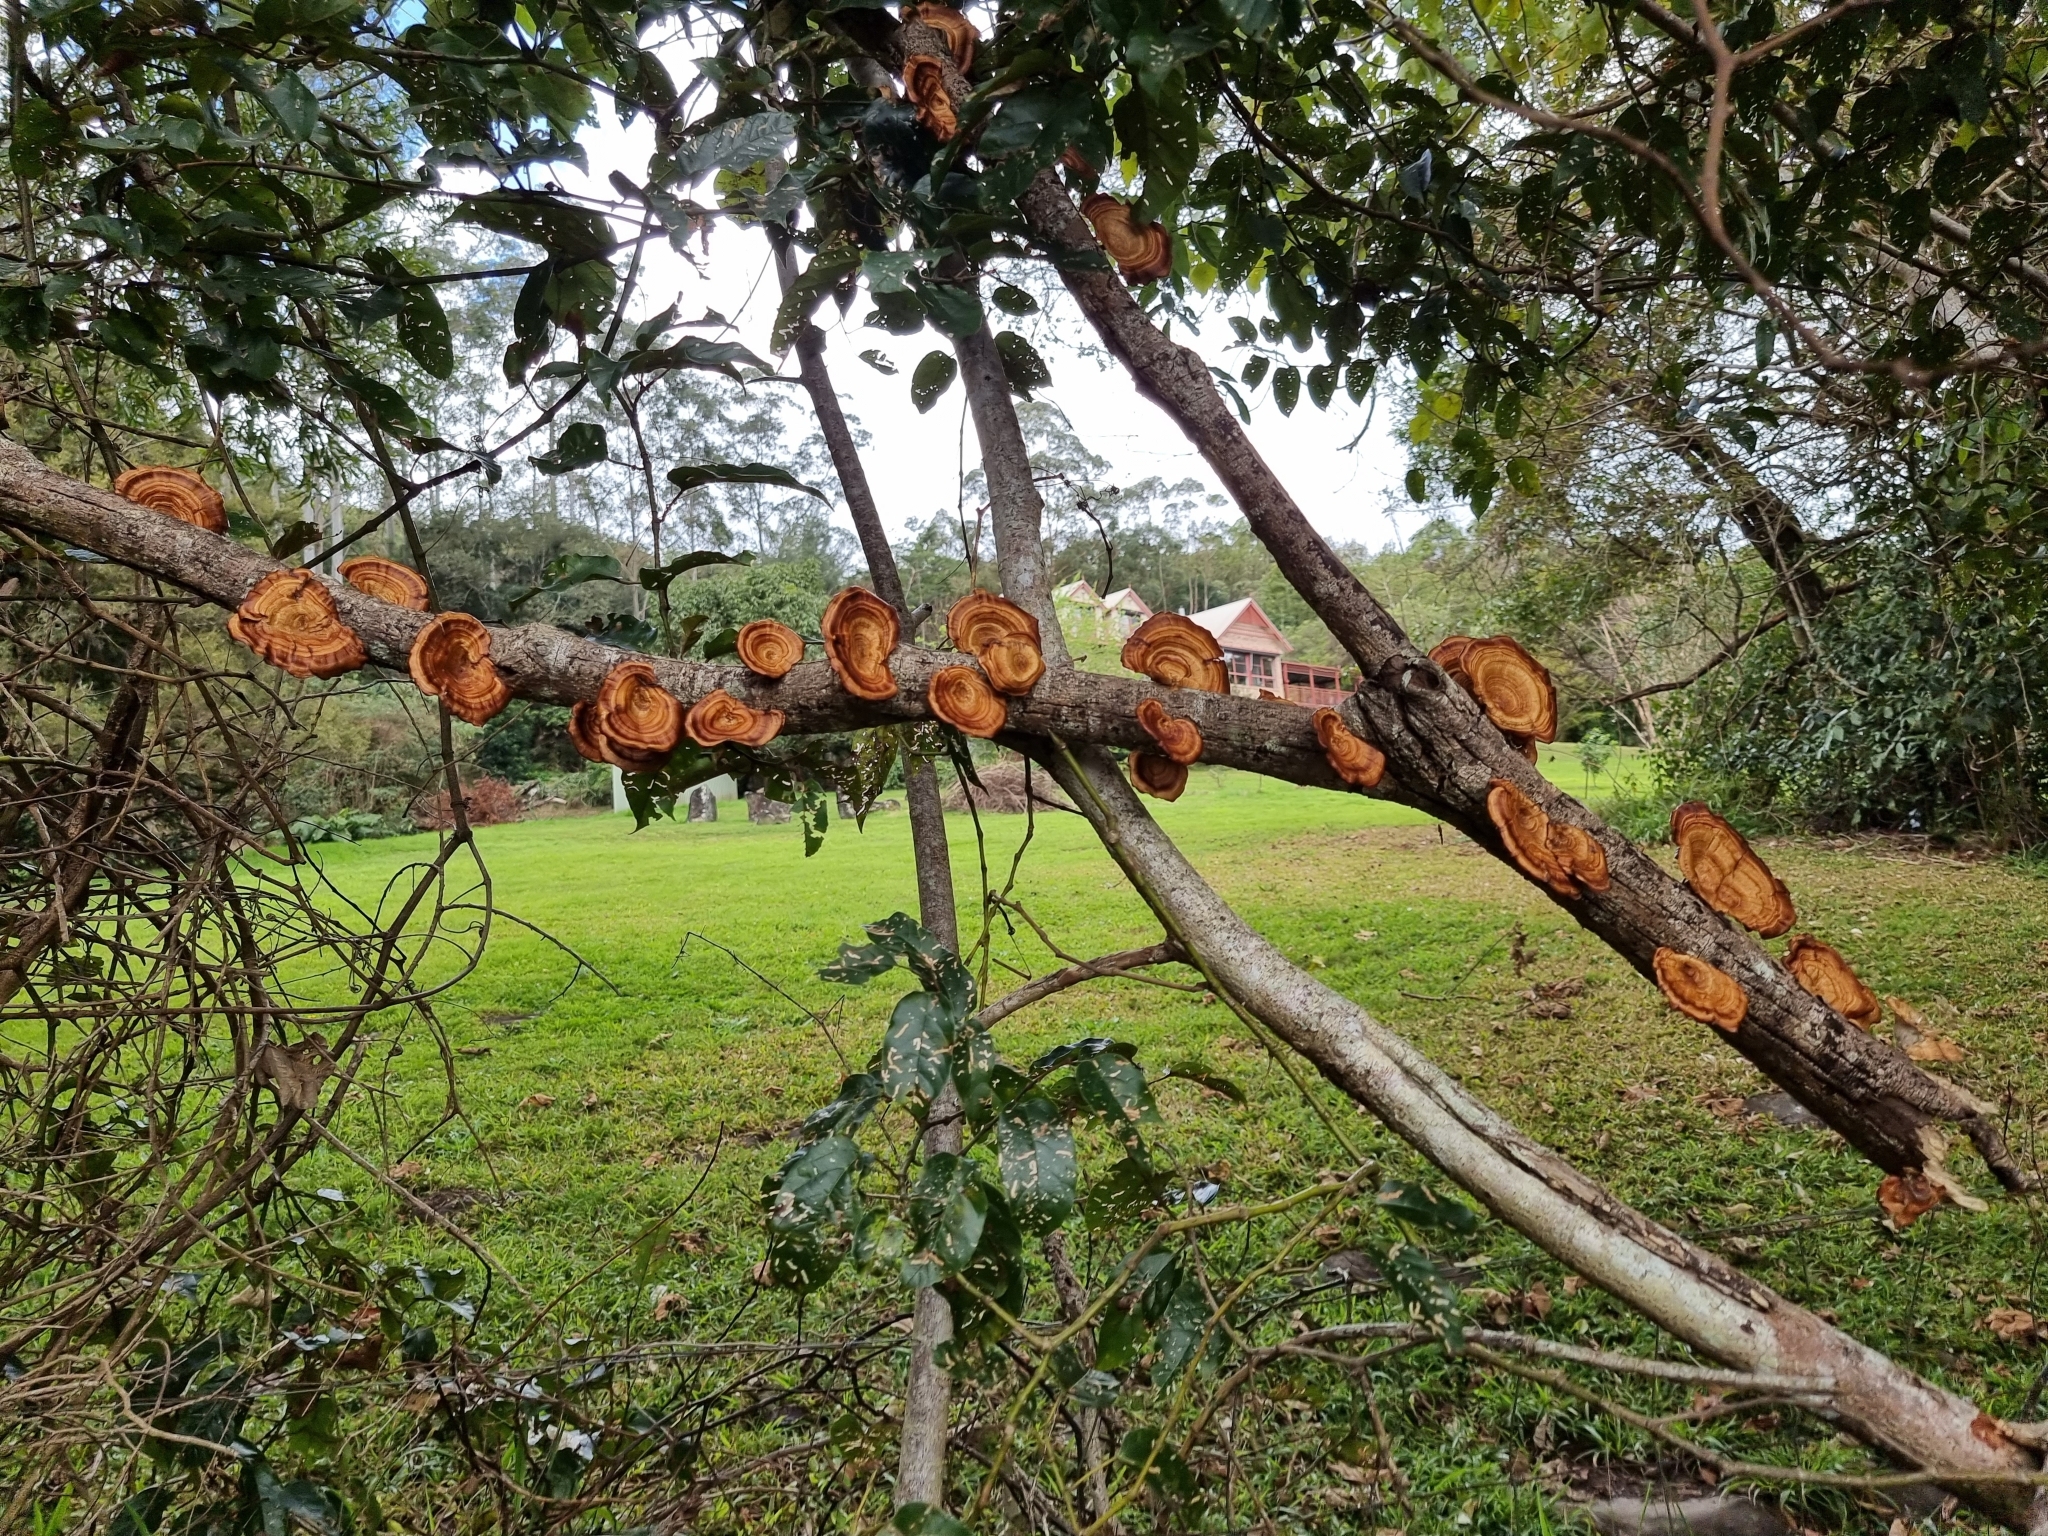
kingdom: Fungi
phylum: Basidiomycota
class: Agaricomycetes
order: Polyporales
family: Polyporaceae
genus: Microporus
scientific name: Microporus xanthopus
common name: Yellow-stemmed micropore
